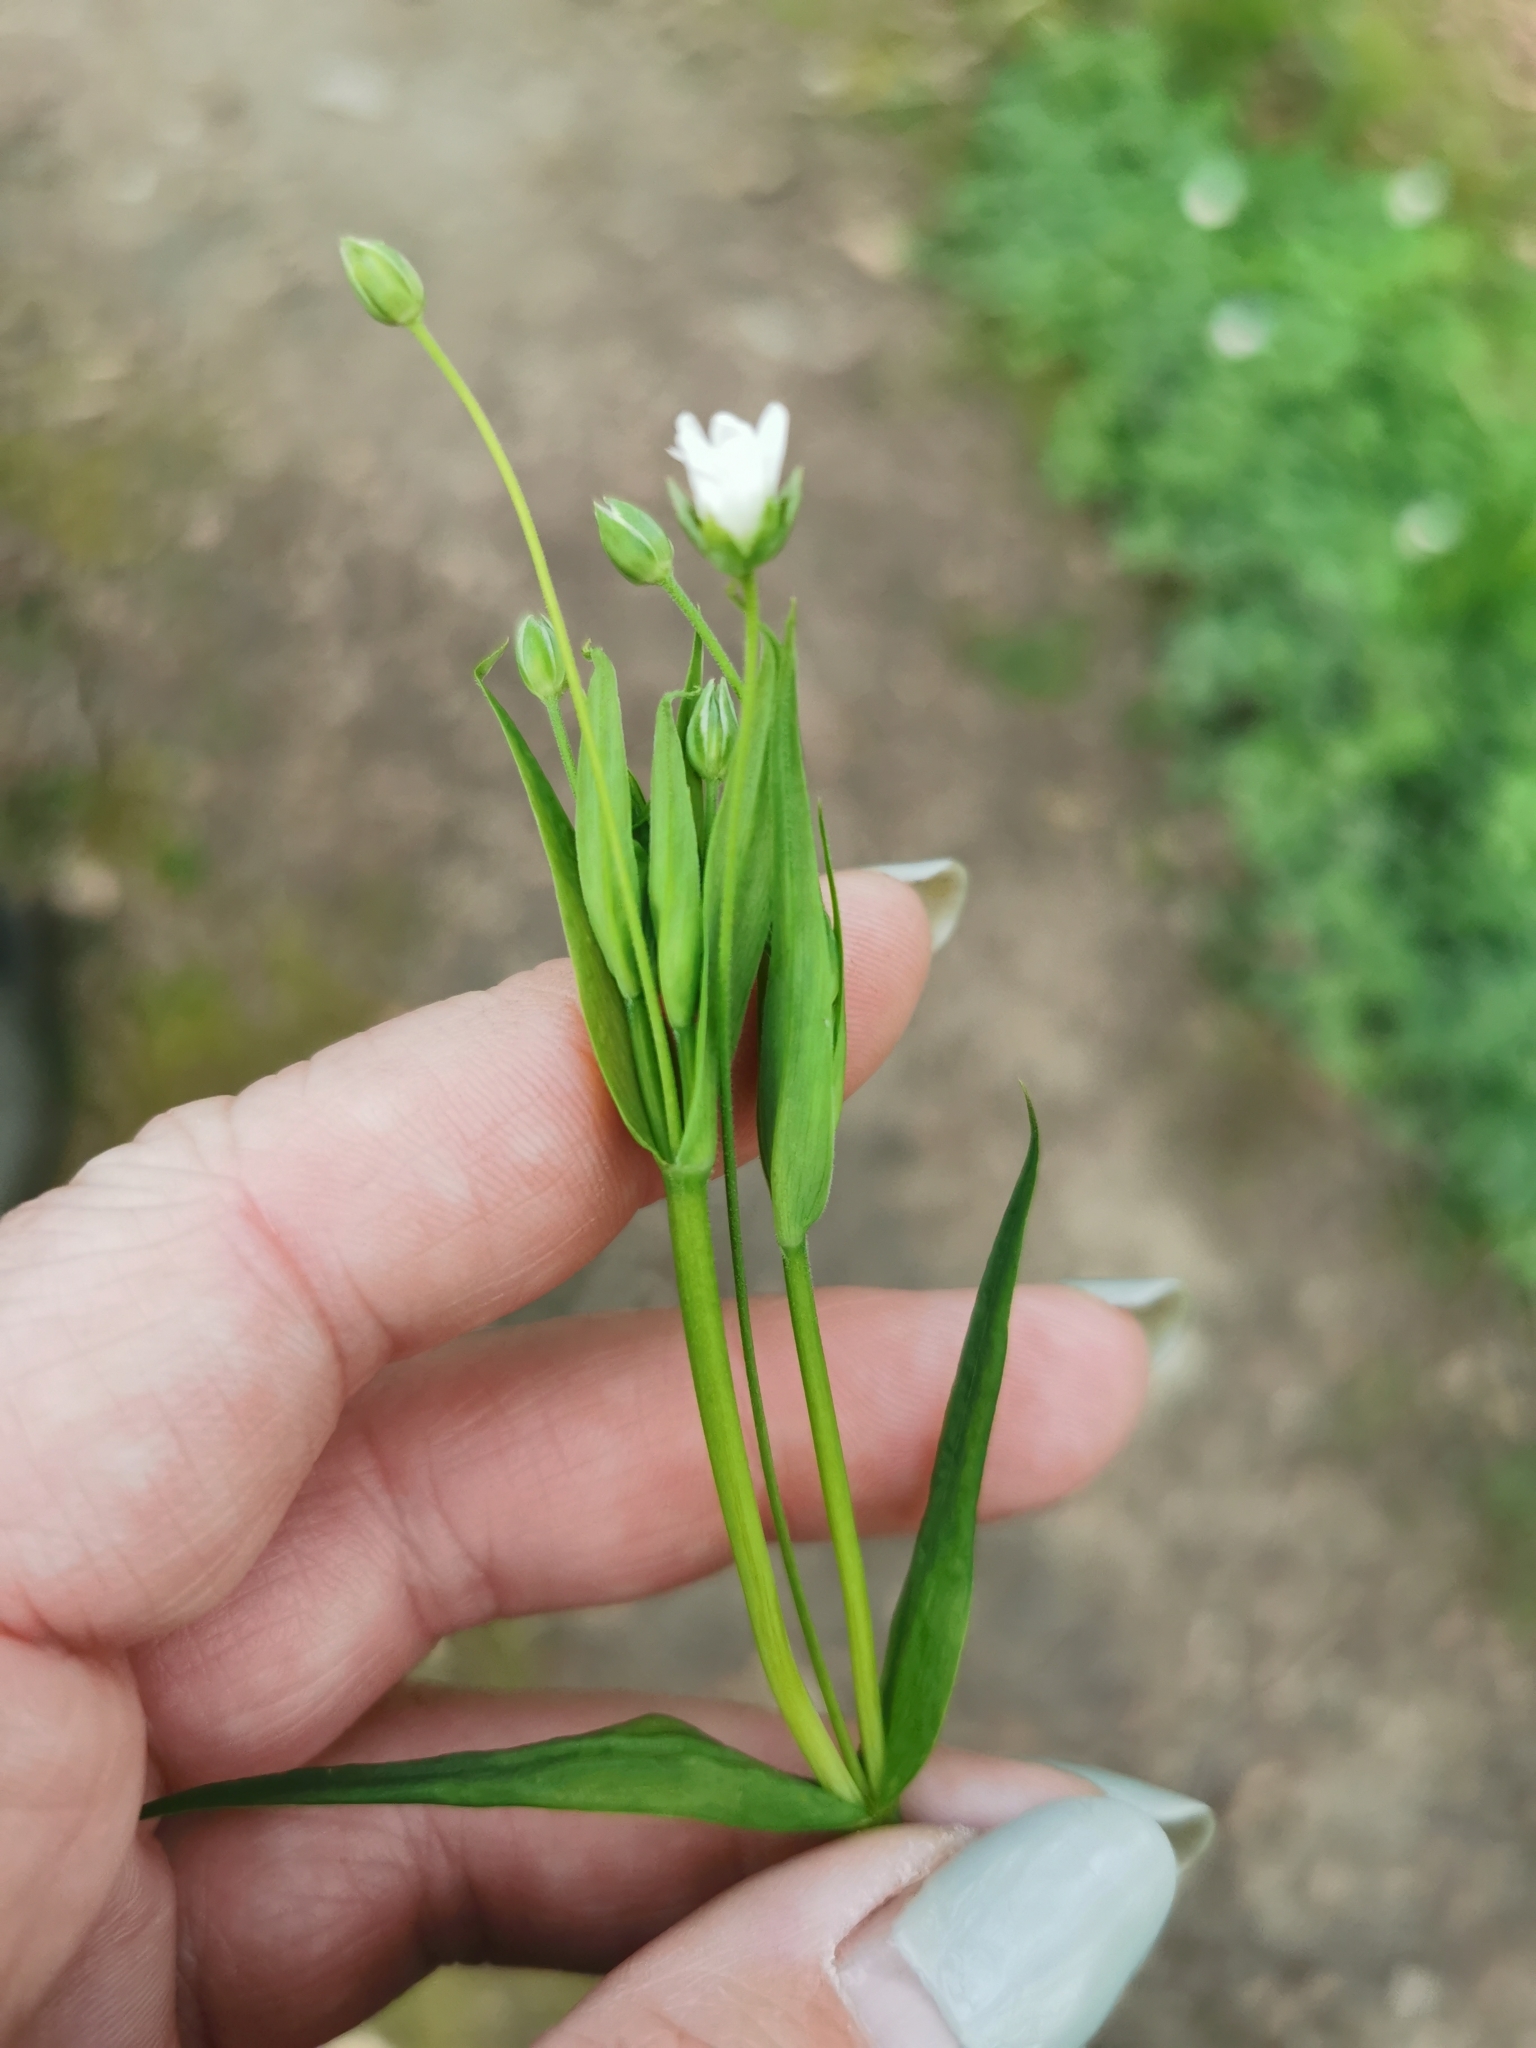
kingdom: Plantae
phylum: Tracheophyta
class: Magnoliopsida
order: Caryophyllales
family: Caryophyllaceae
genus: Rabelera
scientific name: Rabelera holostea
